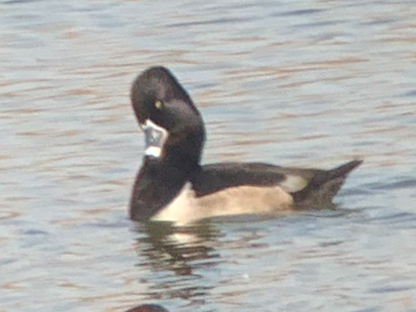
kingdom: Animalia
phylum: Chordata
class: Aves
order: Anseriformes
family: Anatidae
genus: Aythya
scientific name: Aythya collaris
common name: Ring-necked duck
